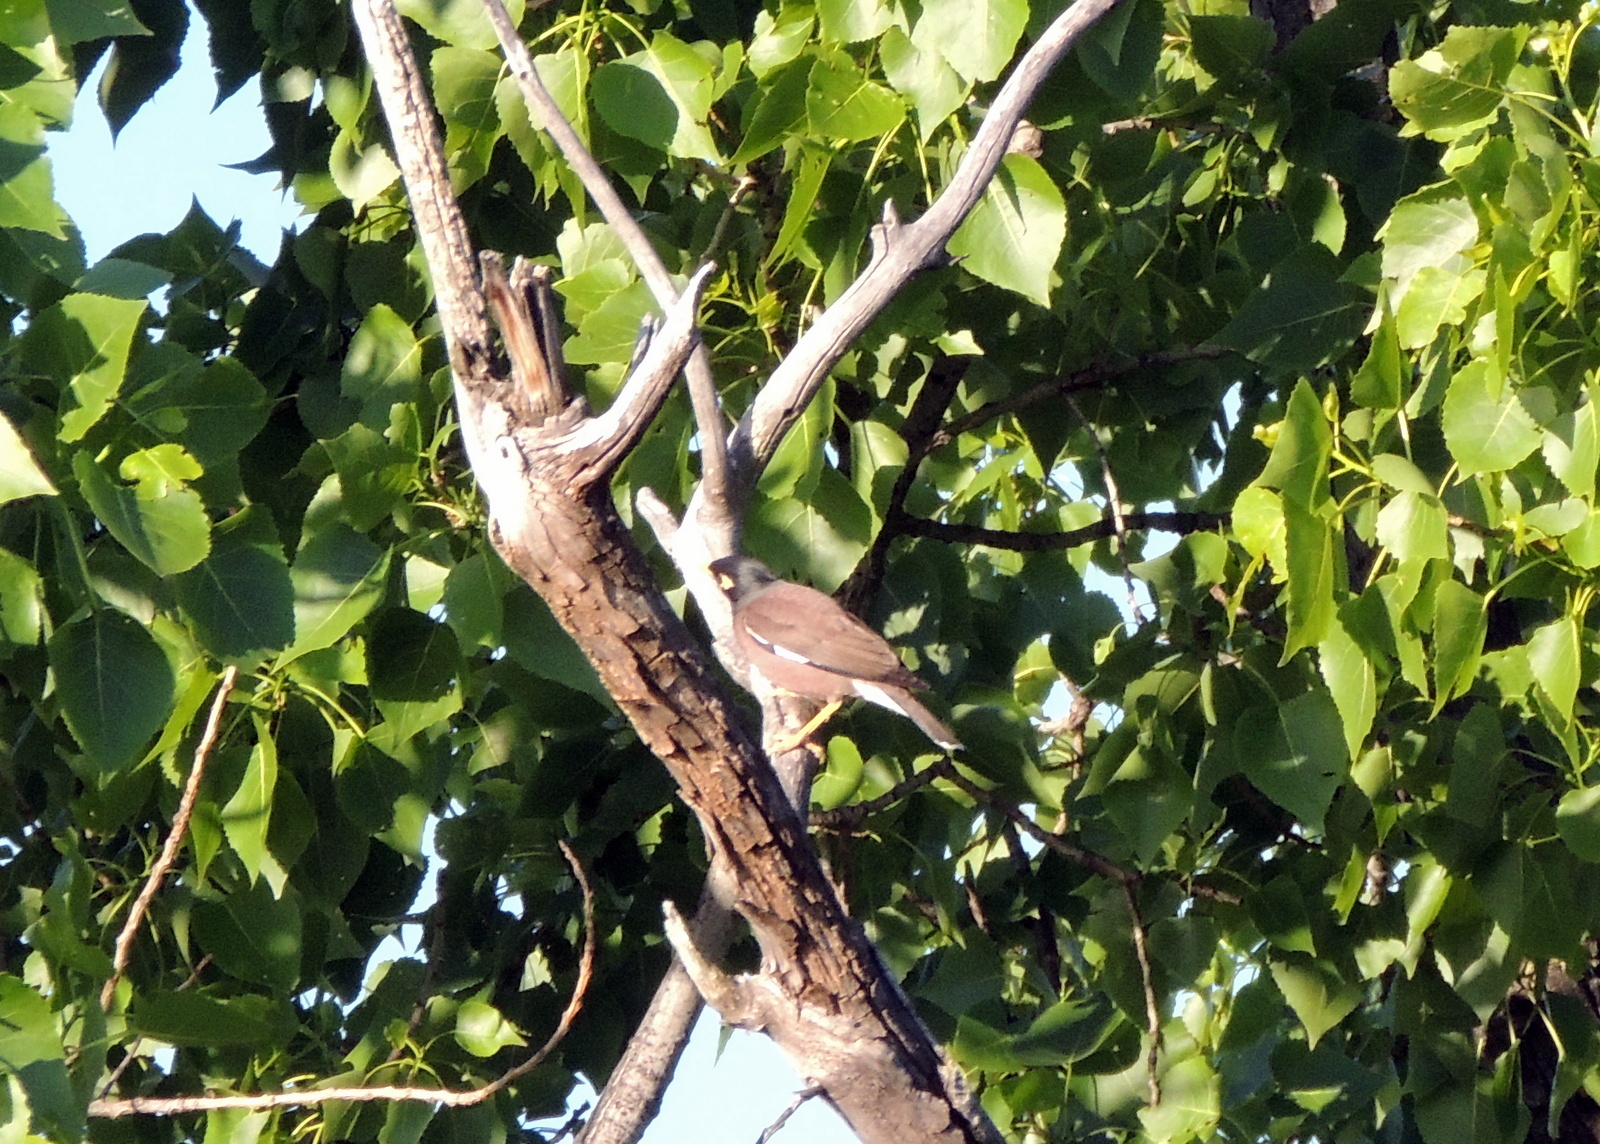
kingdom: Animalia
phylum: Chordata
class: Aves
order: Passeriformes
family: Sturnidae
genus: Acridotheres
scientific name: Acridotheres tristis
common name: Common myna
